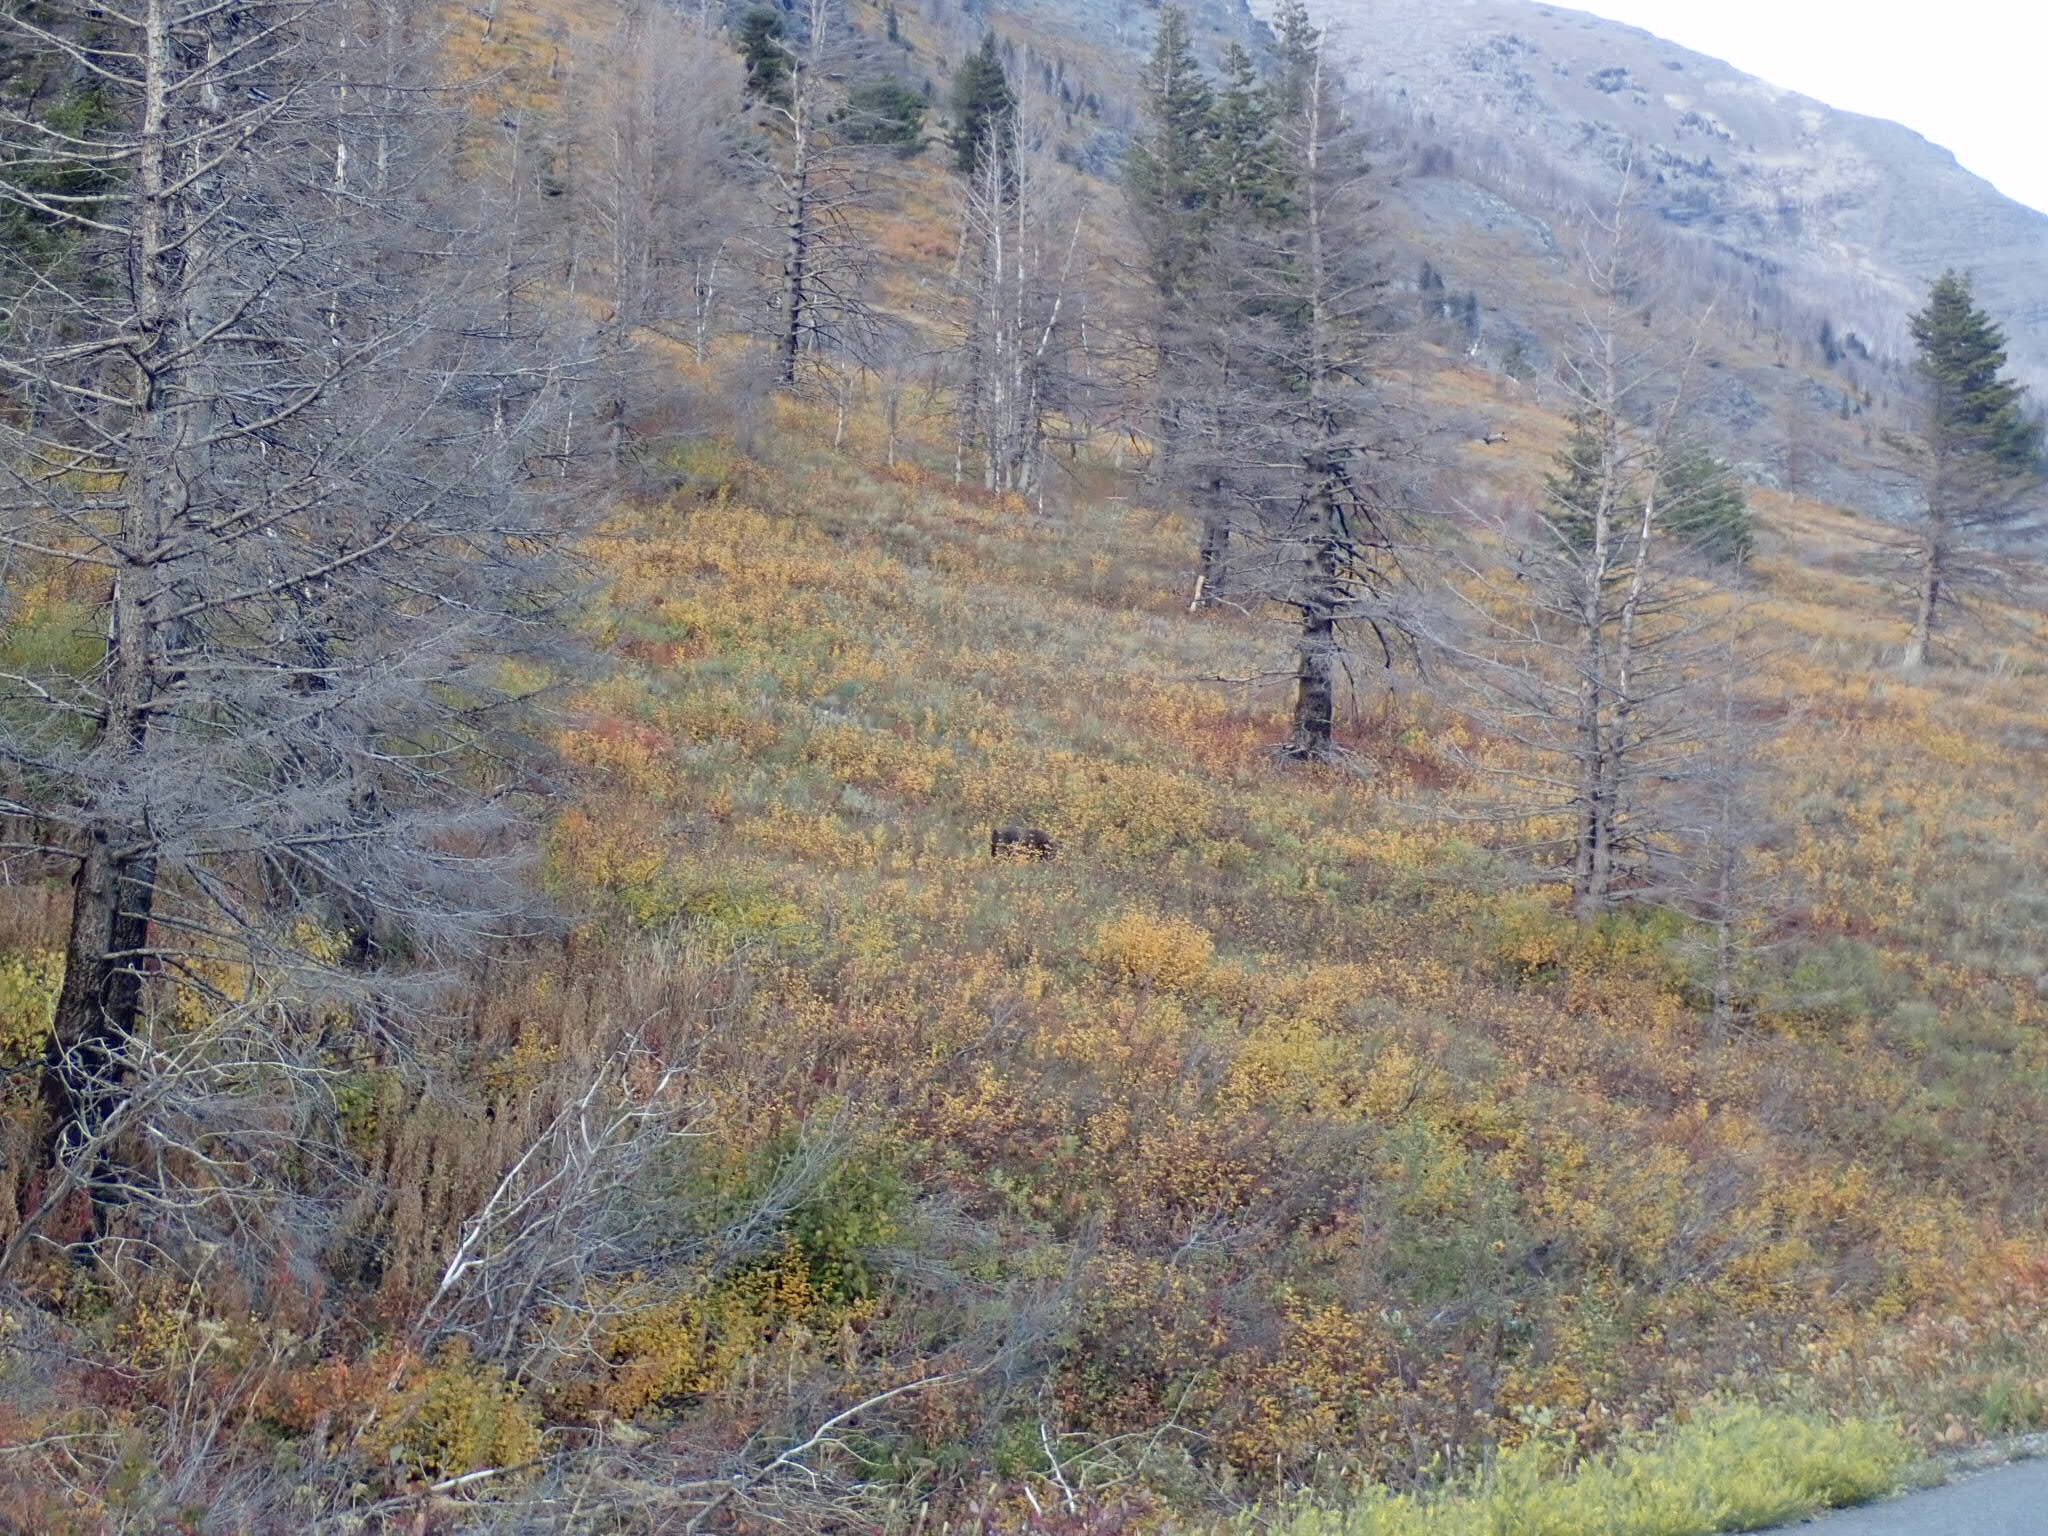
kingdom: Animalia
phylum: Chordata
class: Mammalia
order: Carnivora
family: Ursidae
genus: Ursus
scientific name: Ursus arctos
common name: Brown bear
